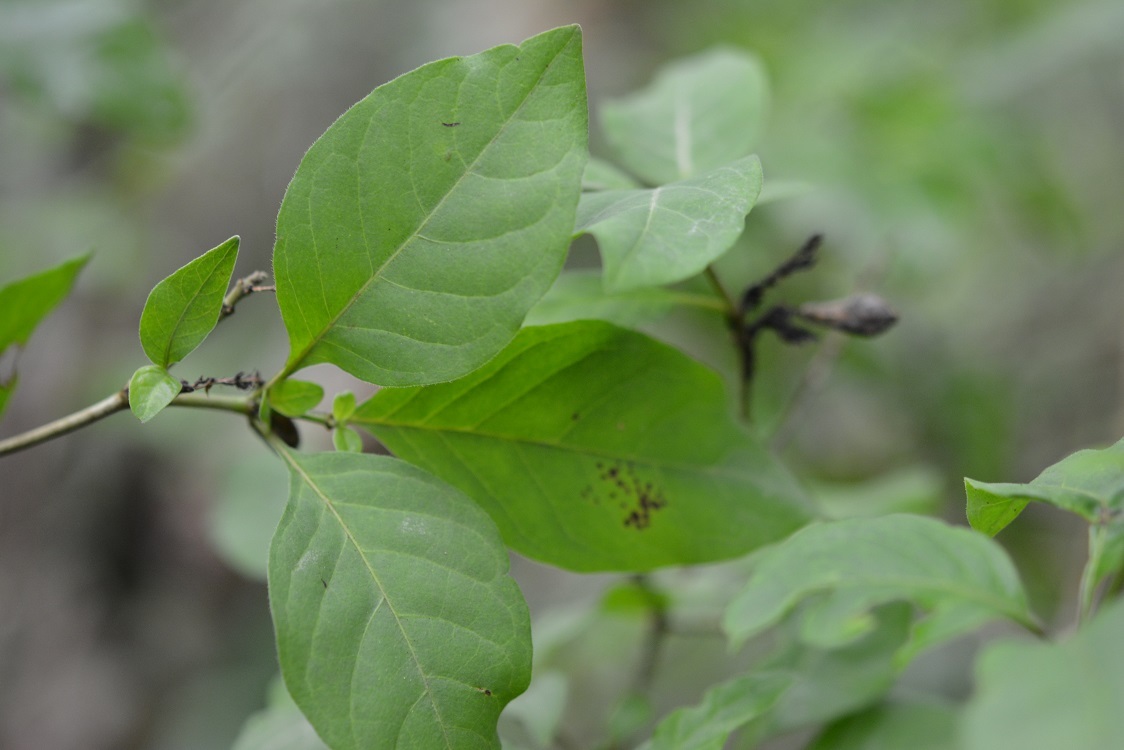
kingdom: Plantae
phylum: Tracheophyta
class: Magnoliopsida
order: Lamiales
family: Acanthaceae
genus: Holographis
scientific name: Holographis parayana
